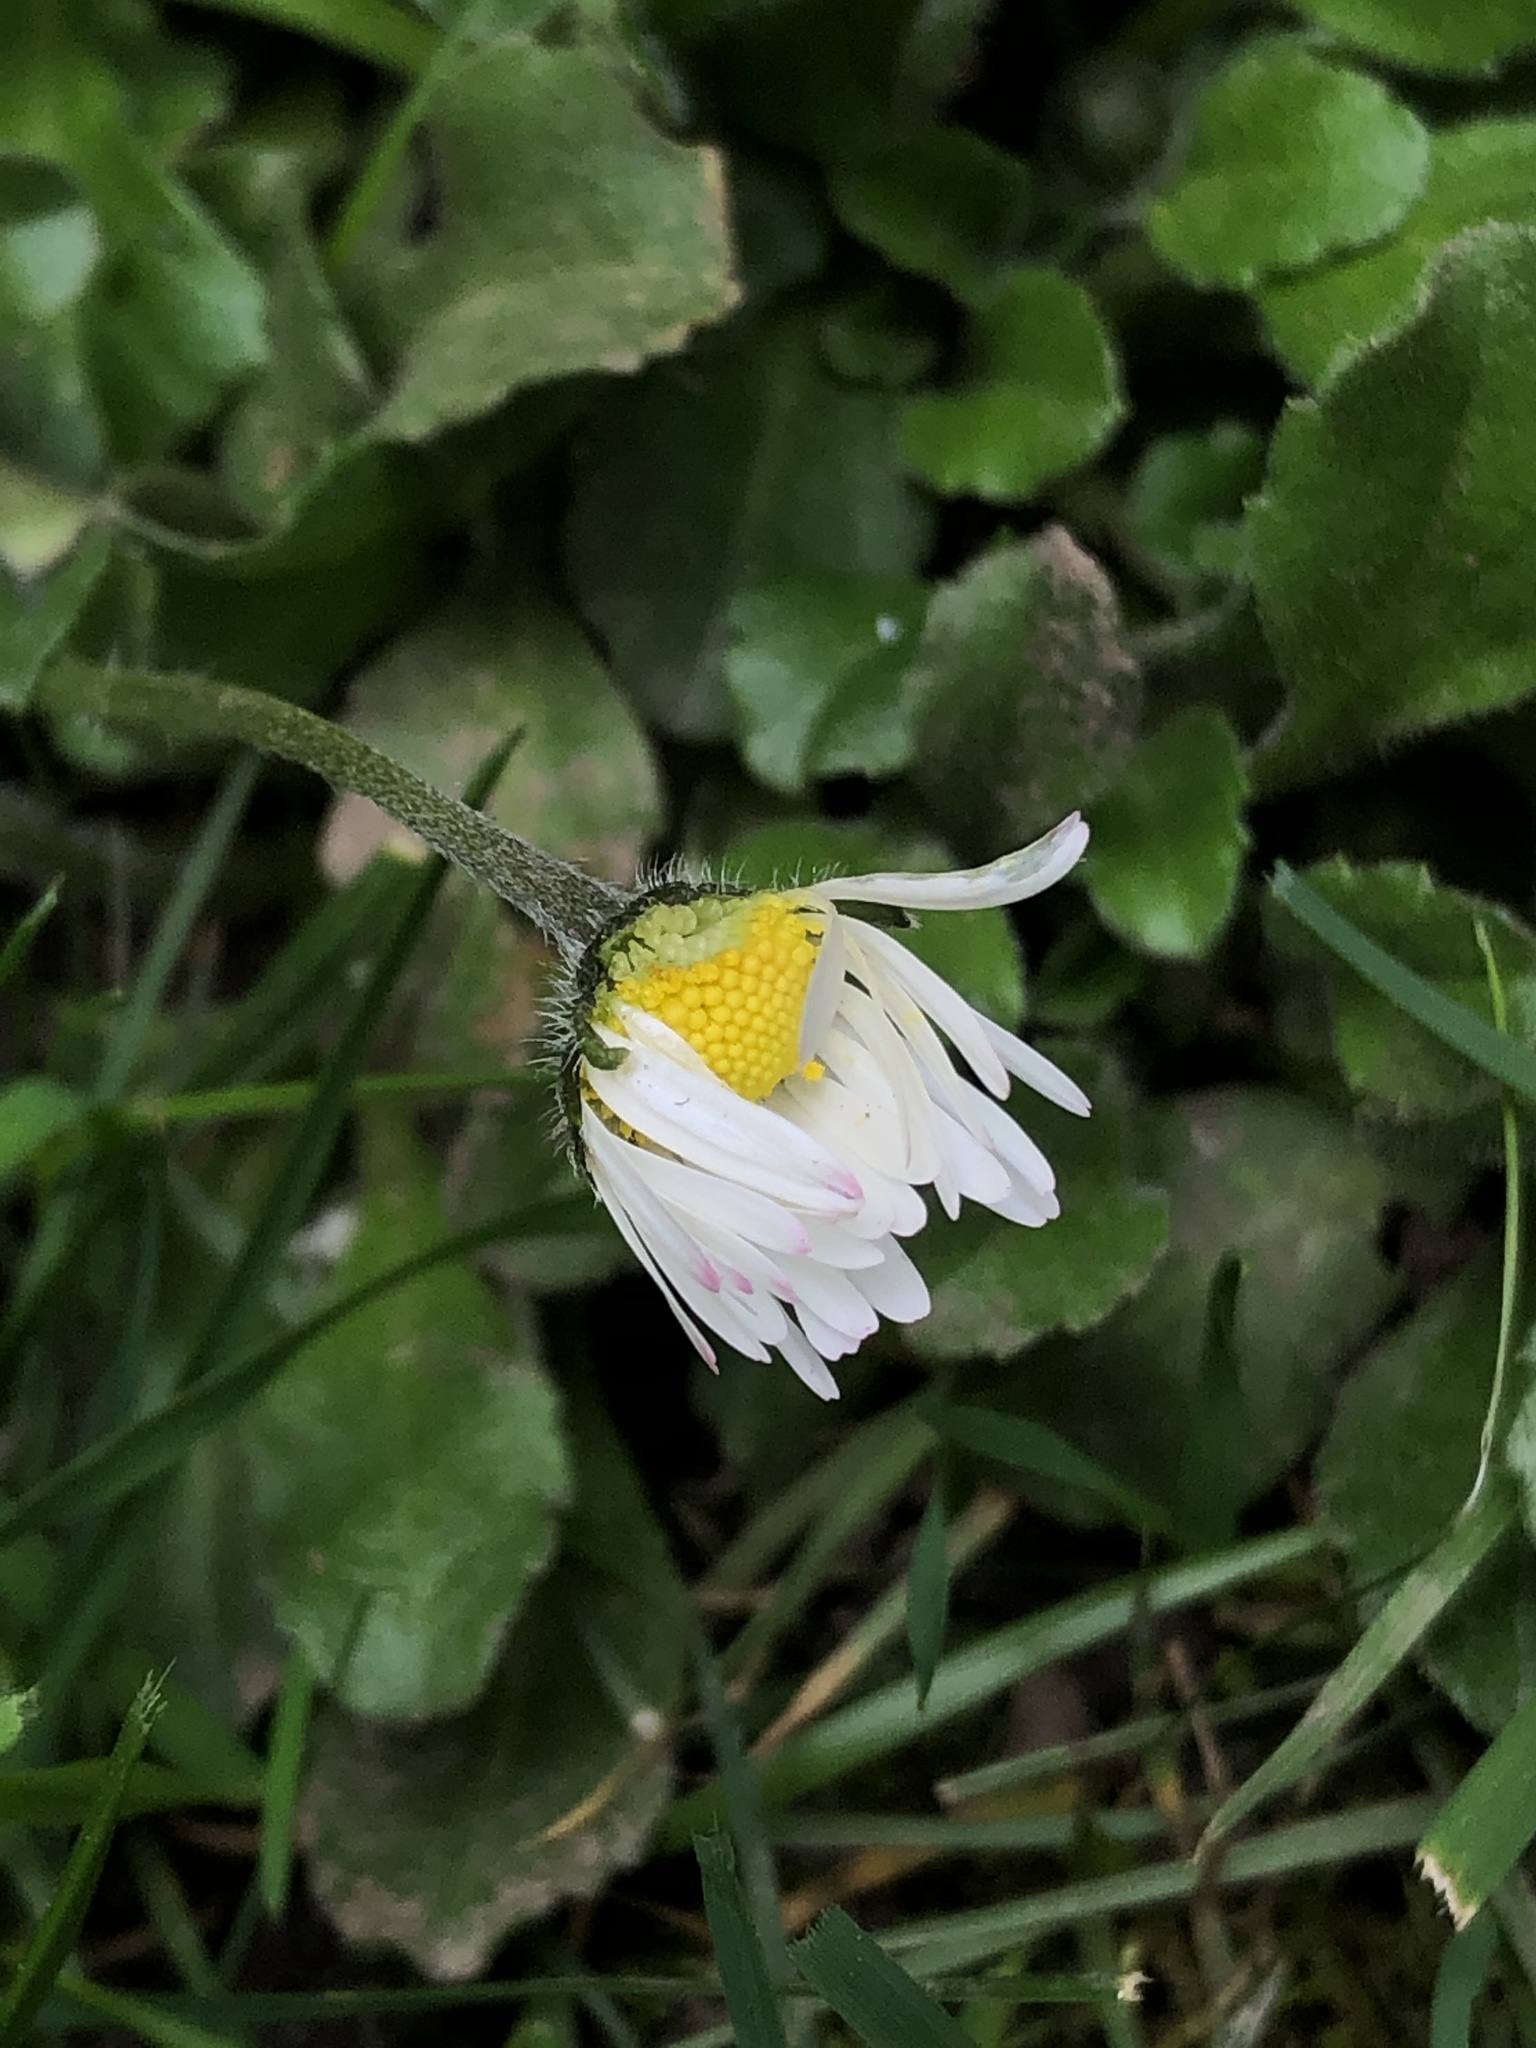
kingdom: Plantae
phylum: Tracheophyta
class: Magnoliopsida
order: Asterales
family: Asteraceae
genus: Bellis
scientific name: Bellis perennis
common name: Lawndaisy
